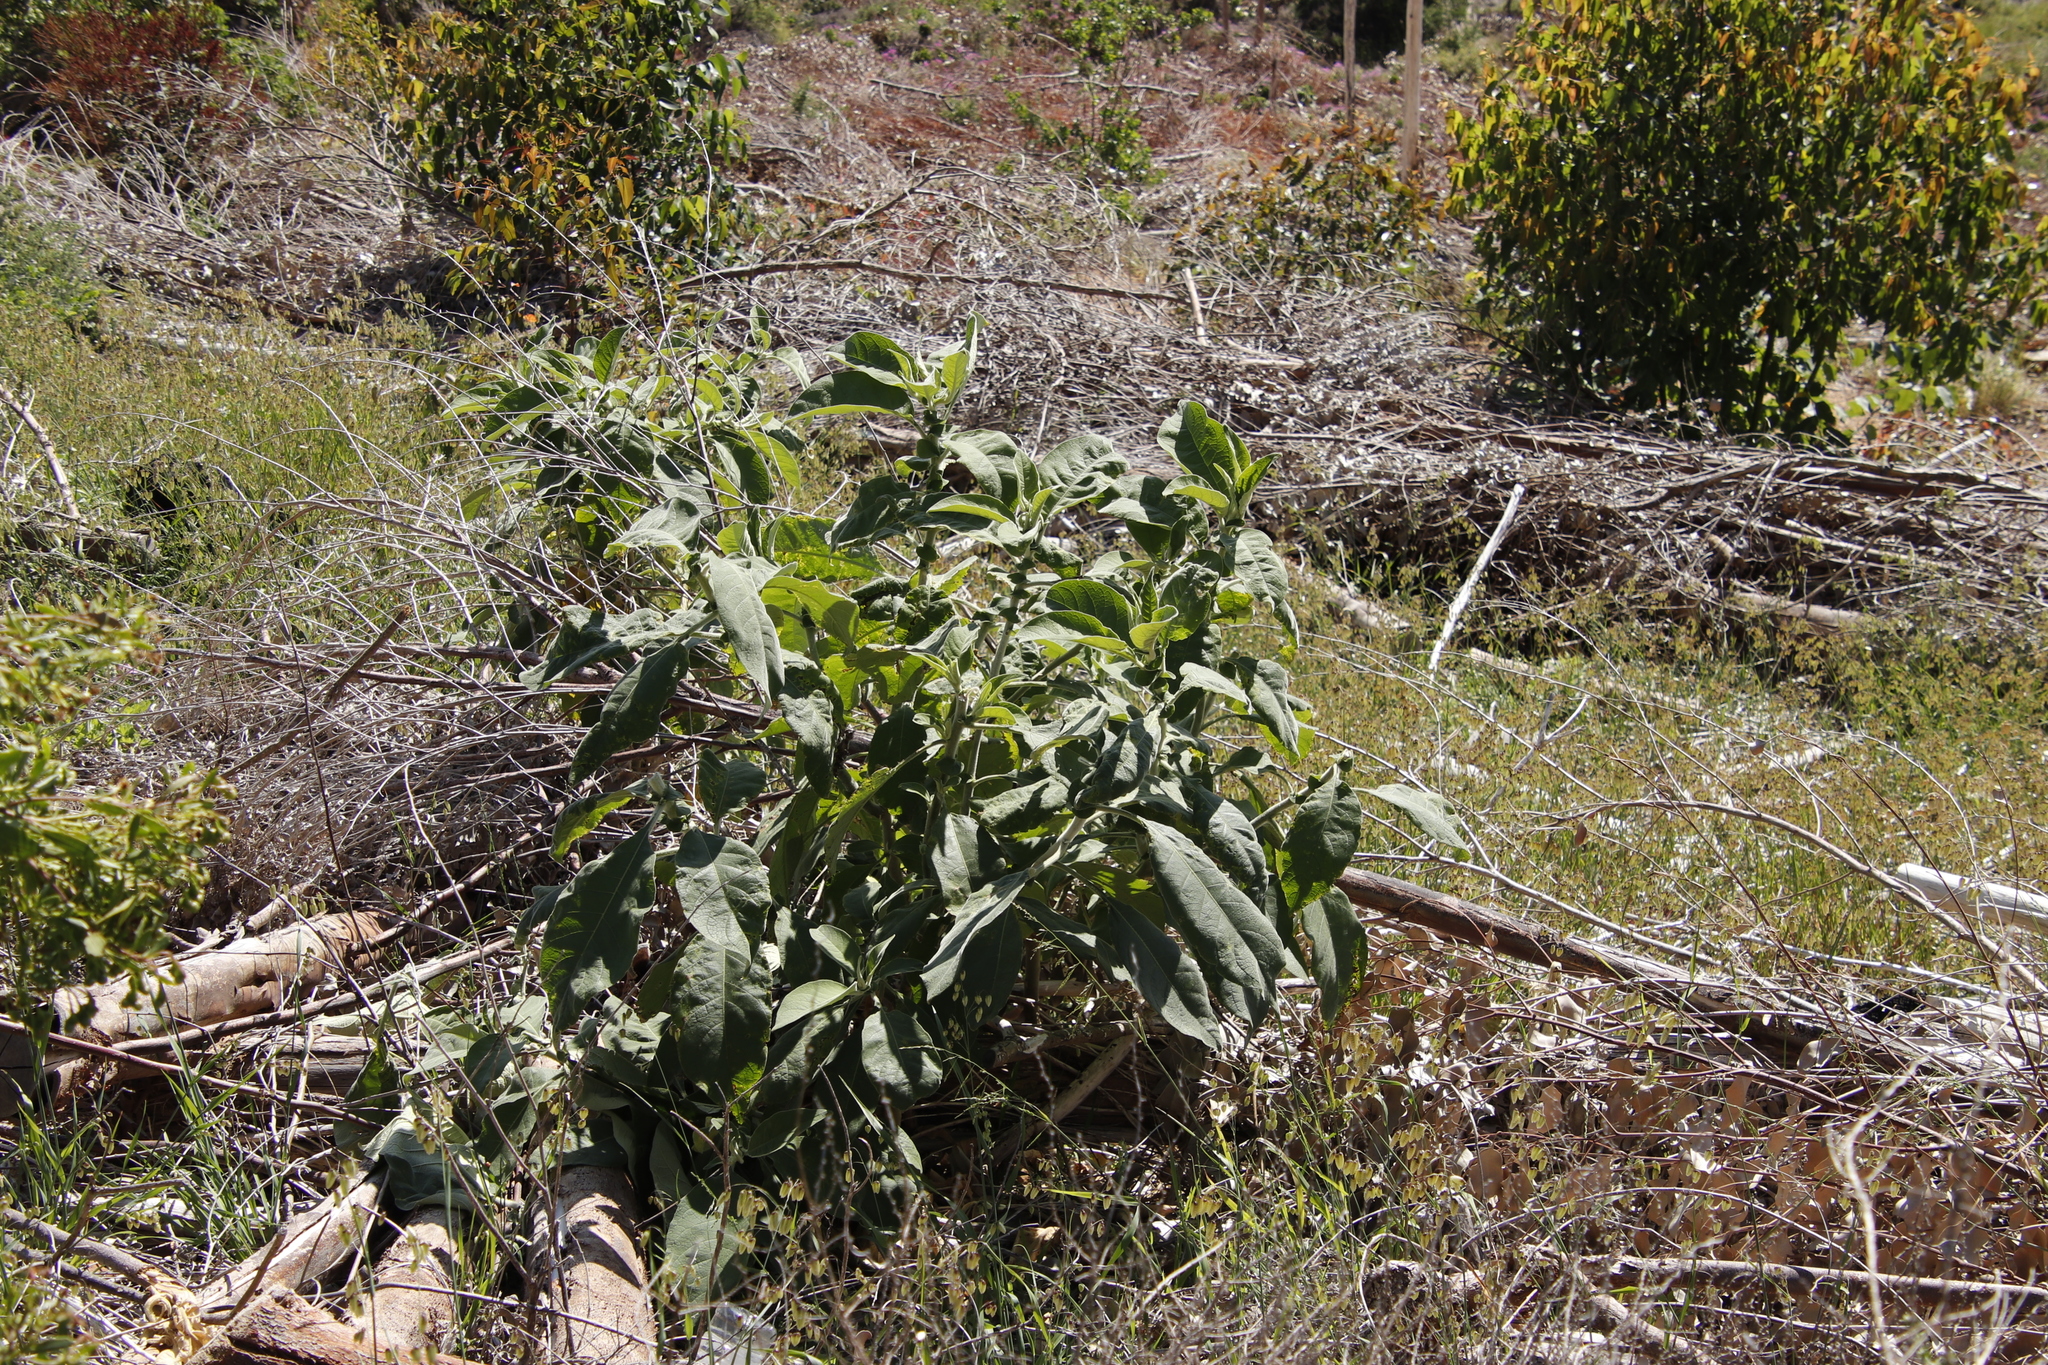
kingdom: Plantae
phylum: Tracheophyta
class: Magnoliopsida
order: Solanales
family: Solanaceae
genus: Solanum
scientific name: Solanum mauritianum
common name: Earleaf nightshade
